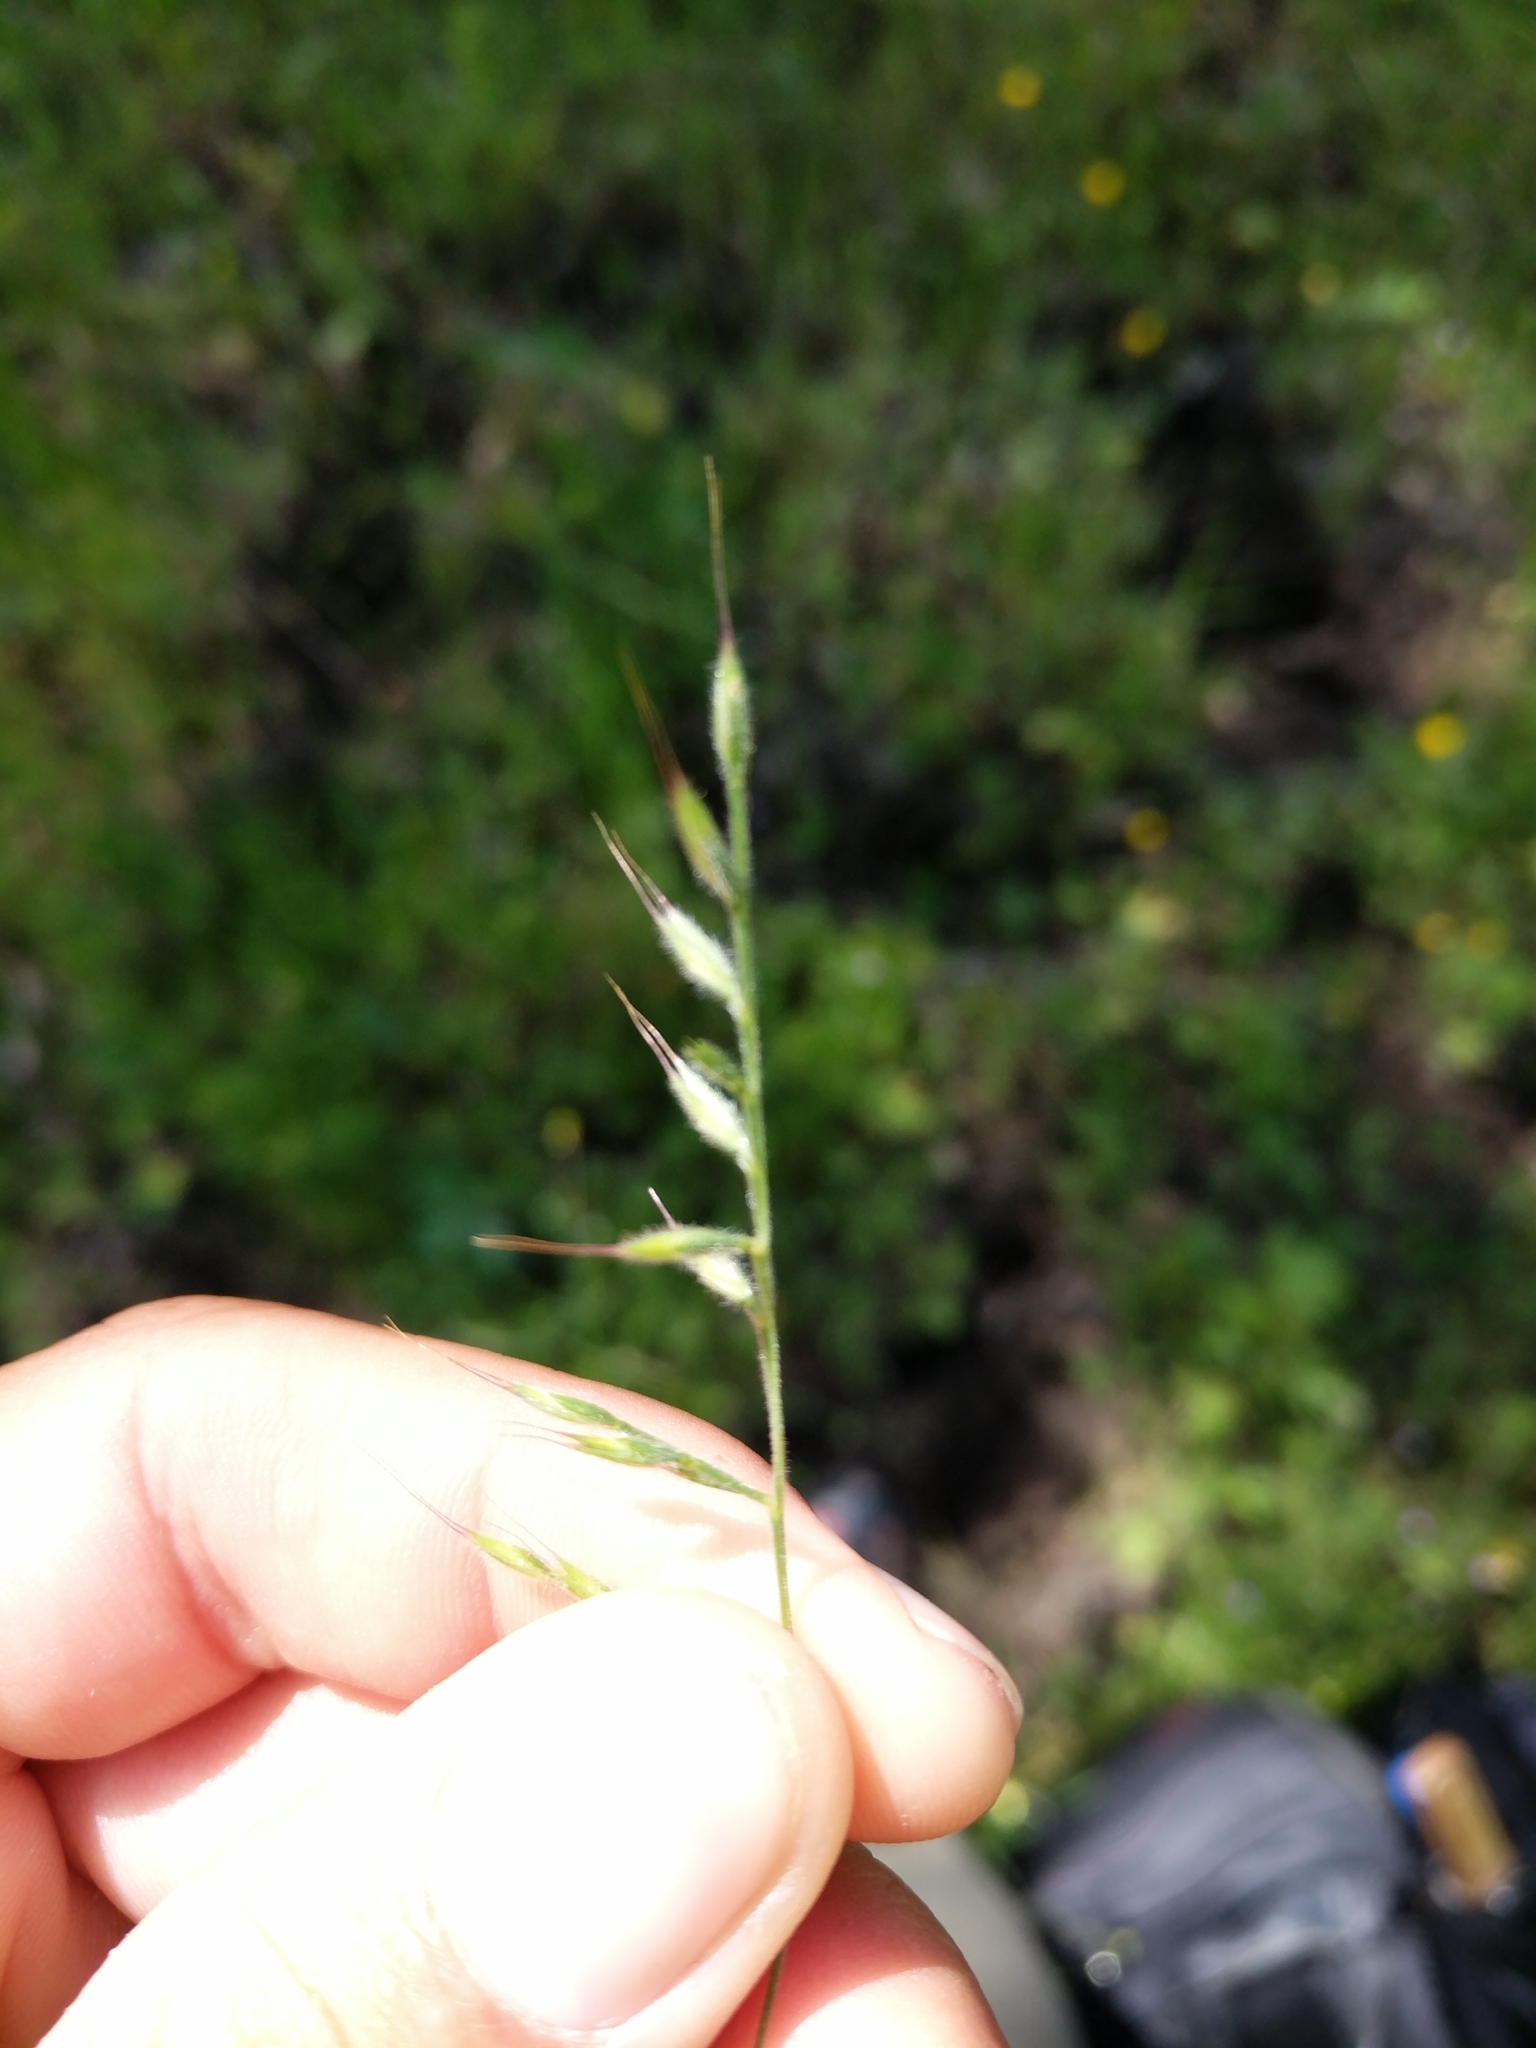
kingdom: Plantae
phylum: Tracheophyta
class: Liliopsida
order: Poales
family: Poaceae
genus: Festuca
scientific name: Festuca microstachys
